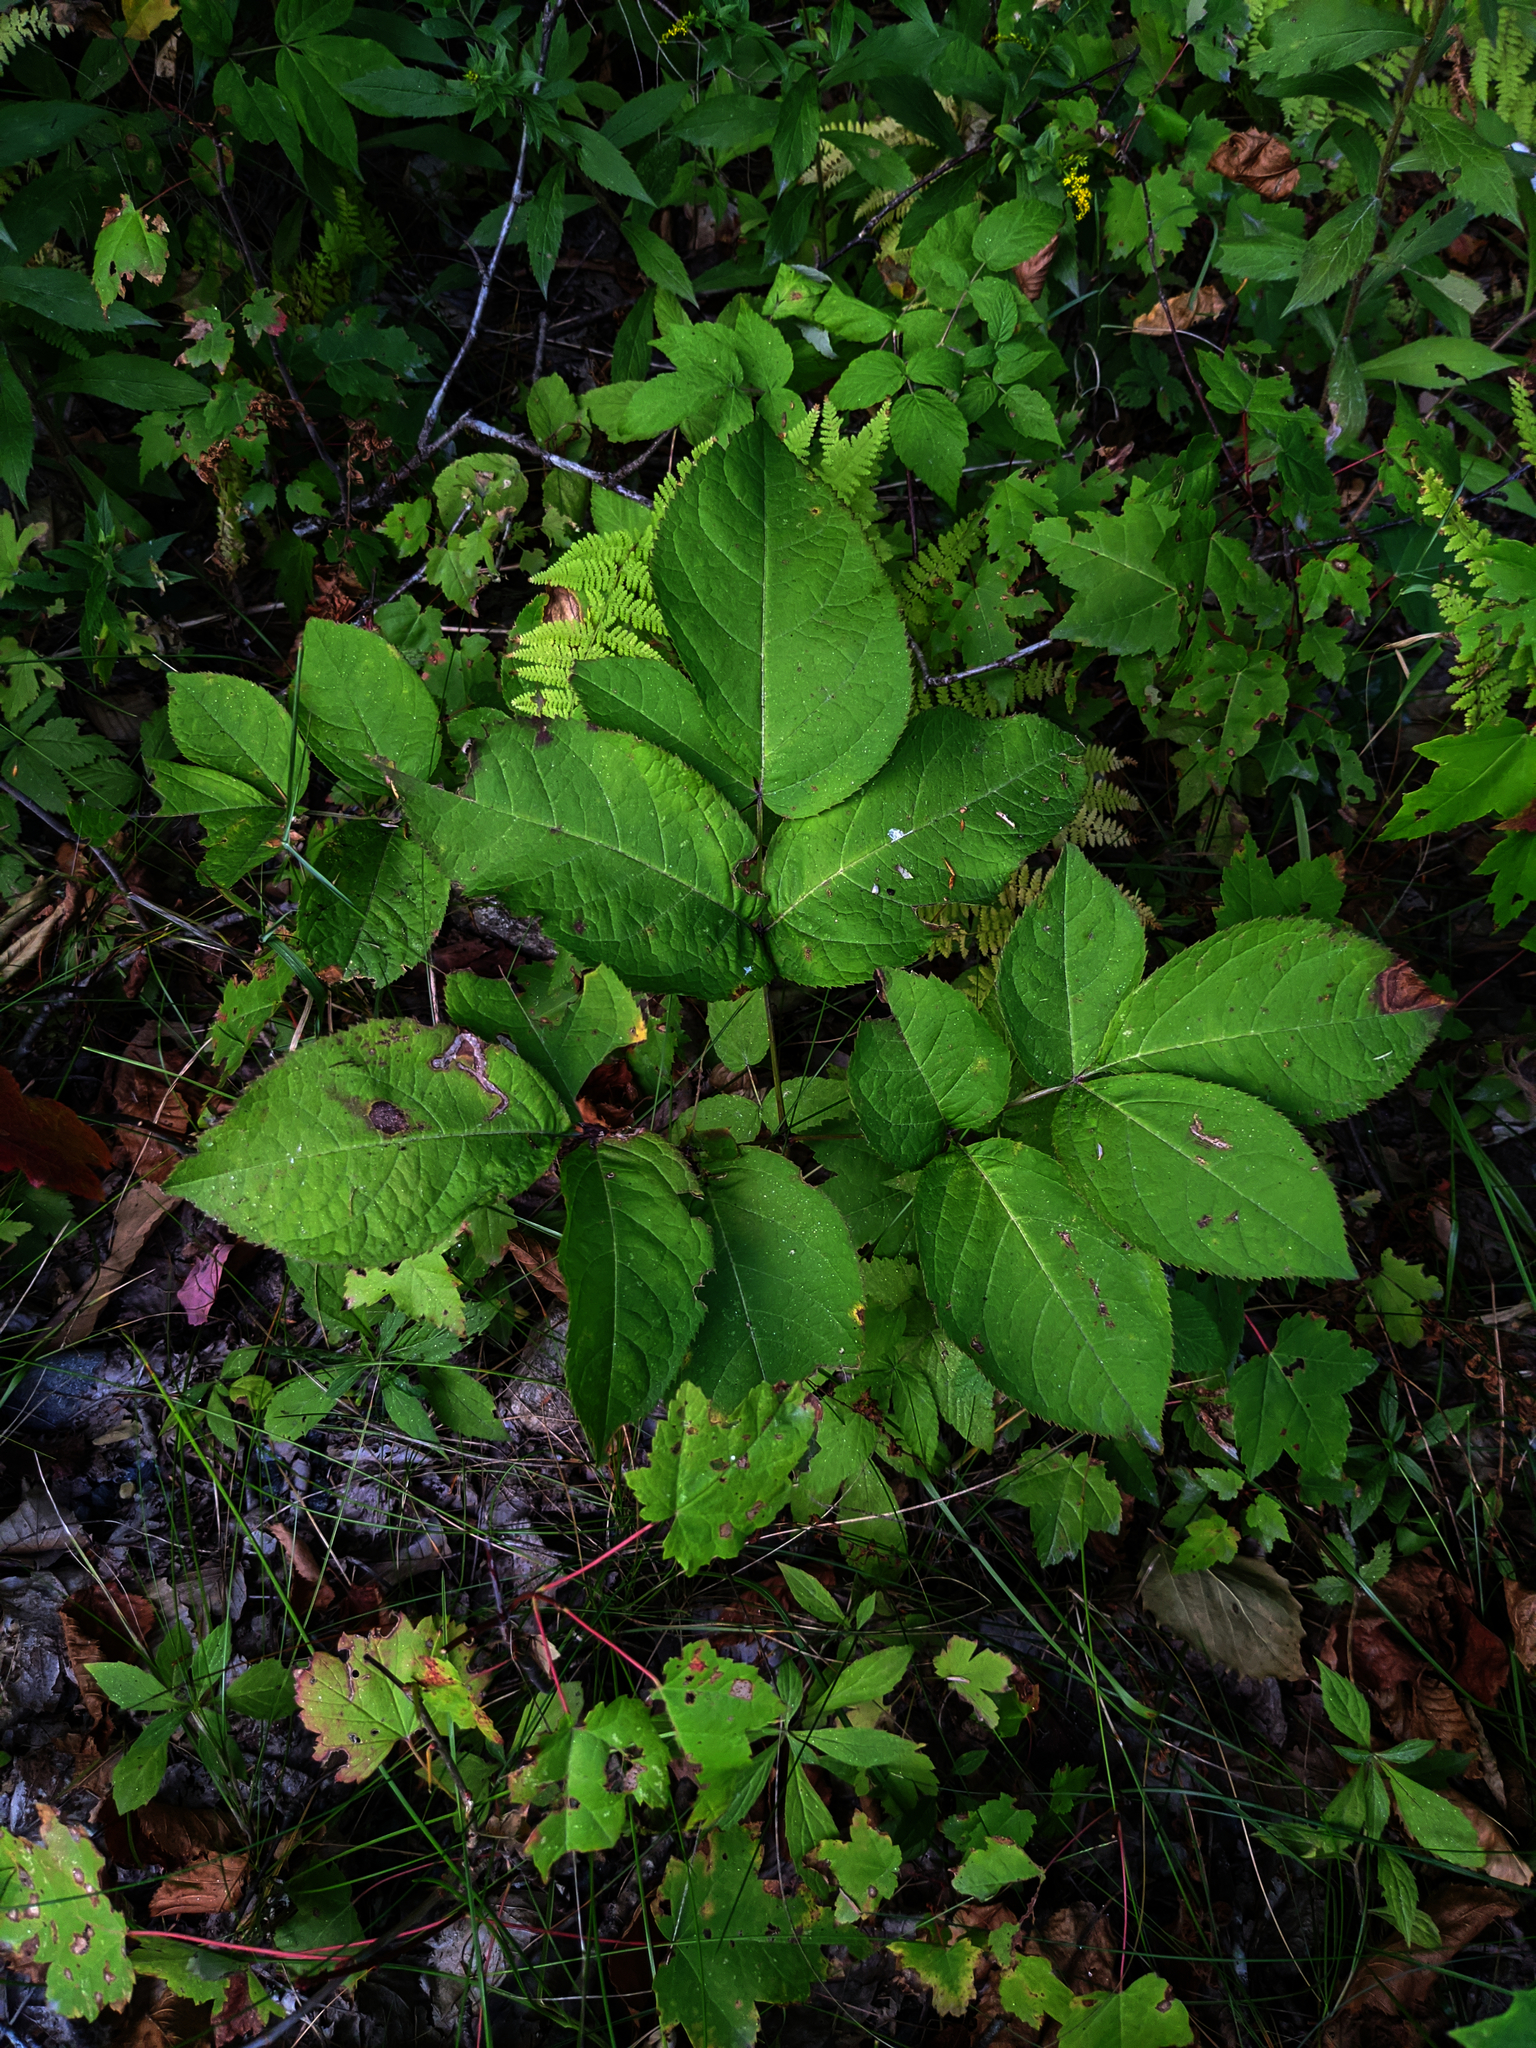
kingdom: Plantae
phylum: Tracheophyta
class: Magnoliopsida
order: Apiales
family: Araliaceae
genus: Aralia
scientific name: Aralia nudicaulis
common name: Wild sarsaparilla
